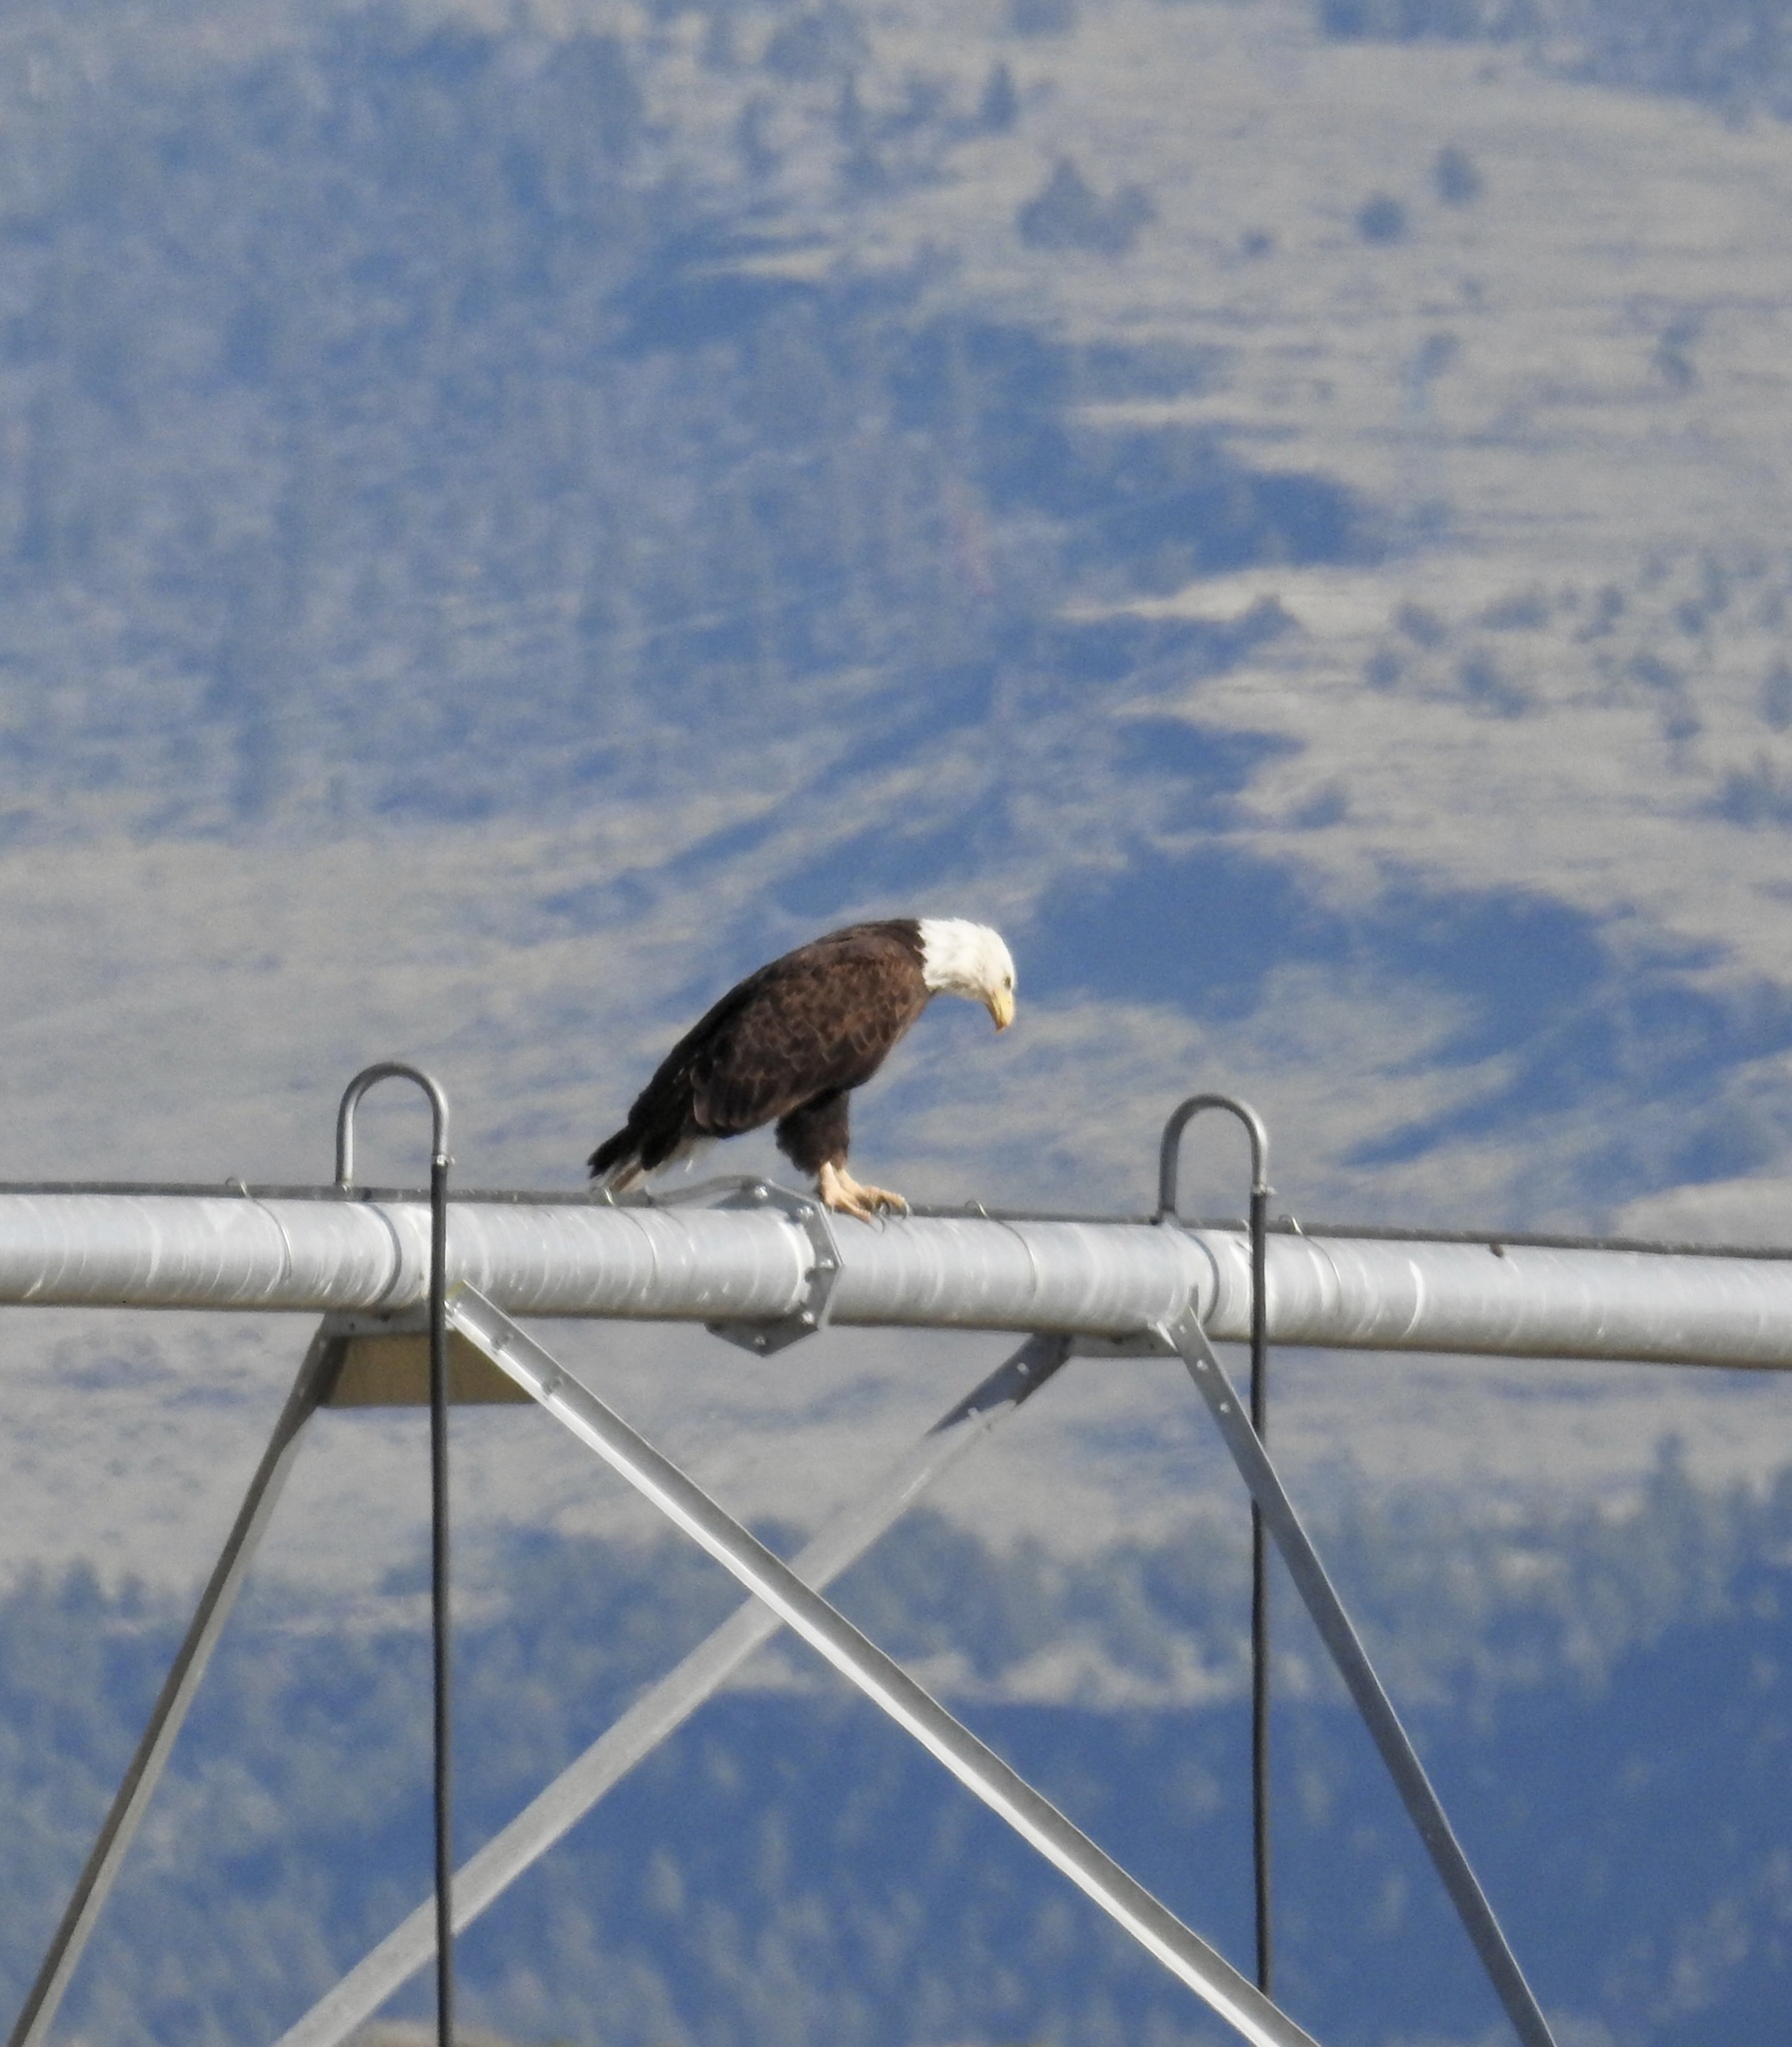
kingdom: Animalia
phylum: Chordata
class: Aves
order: Accipitriformes
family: Accipitridae
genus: Haliaeetus
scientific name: Haliaeetus leucocephalus
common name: Bald eagle
